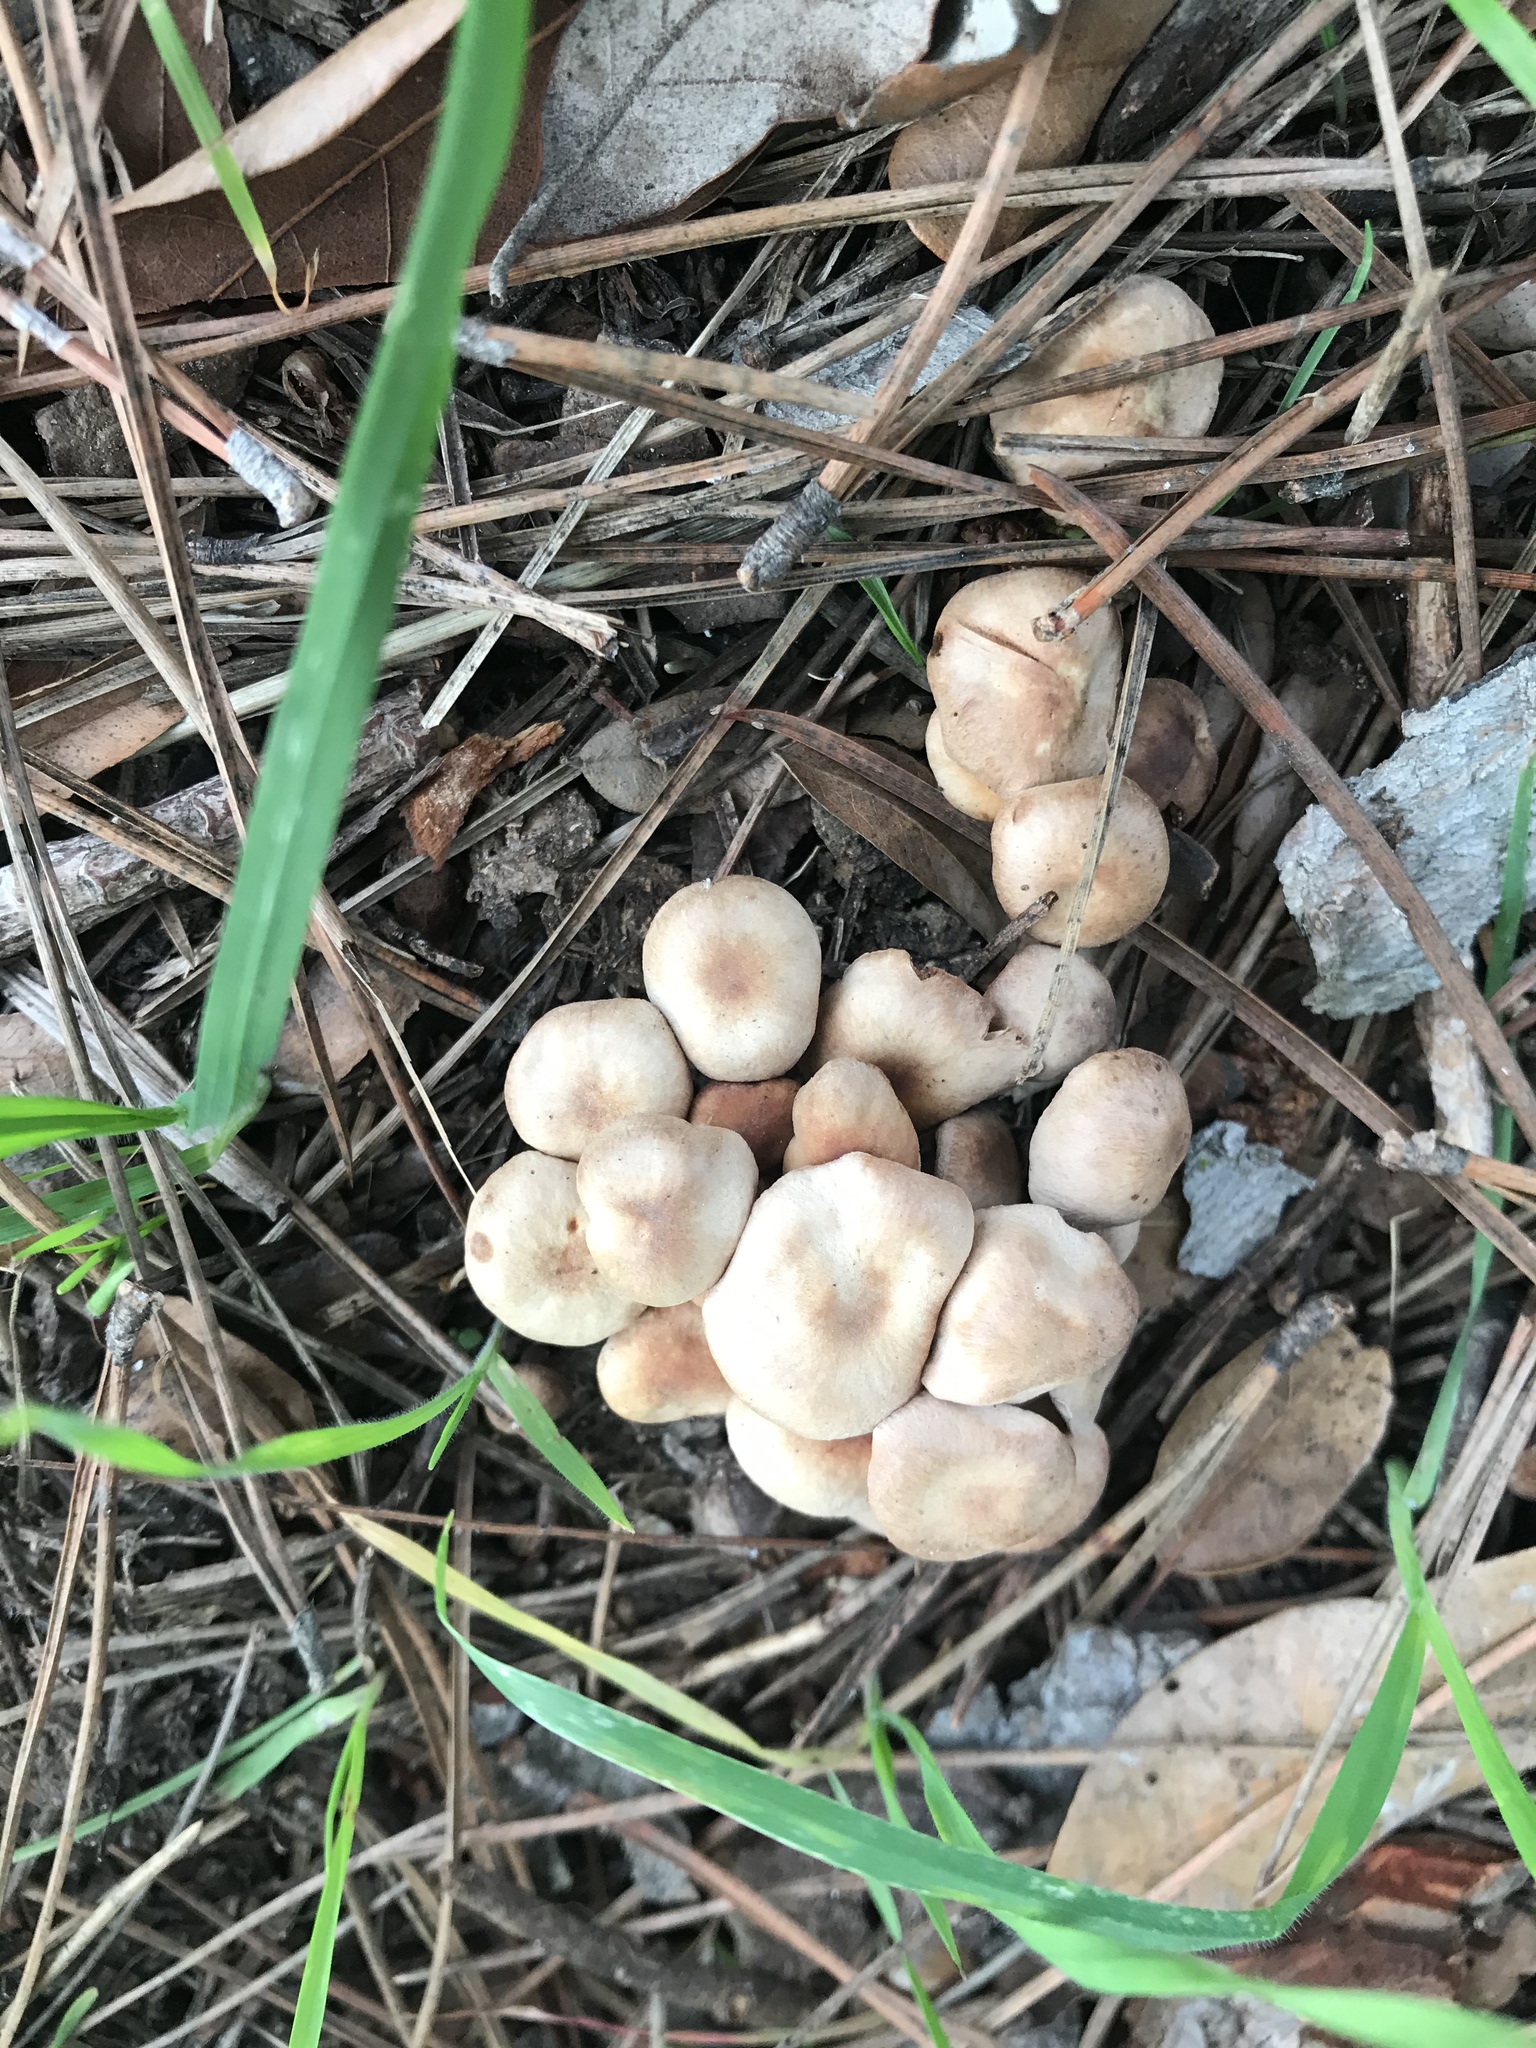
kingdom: Fungi
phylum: Basidiomycota
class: Agaricomycetes
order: Agaricales
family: Omphalotaceae
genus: Gymnopus
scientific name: Gymnopus brassicolens
